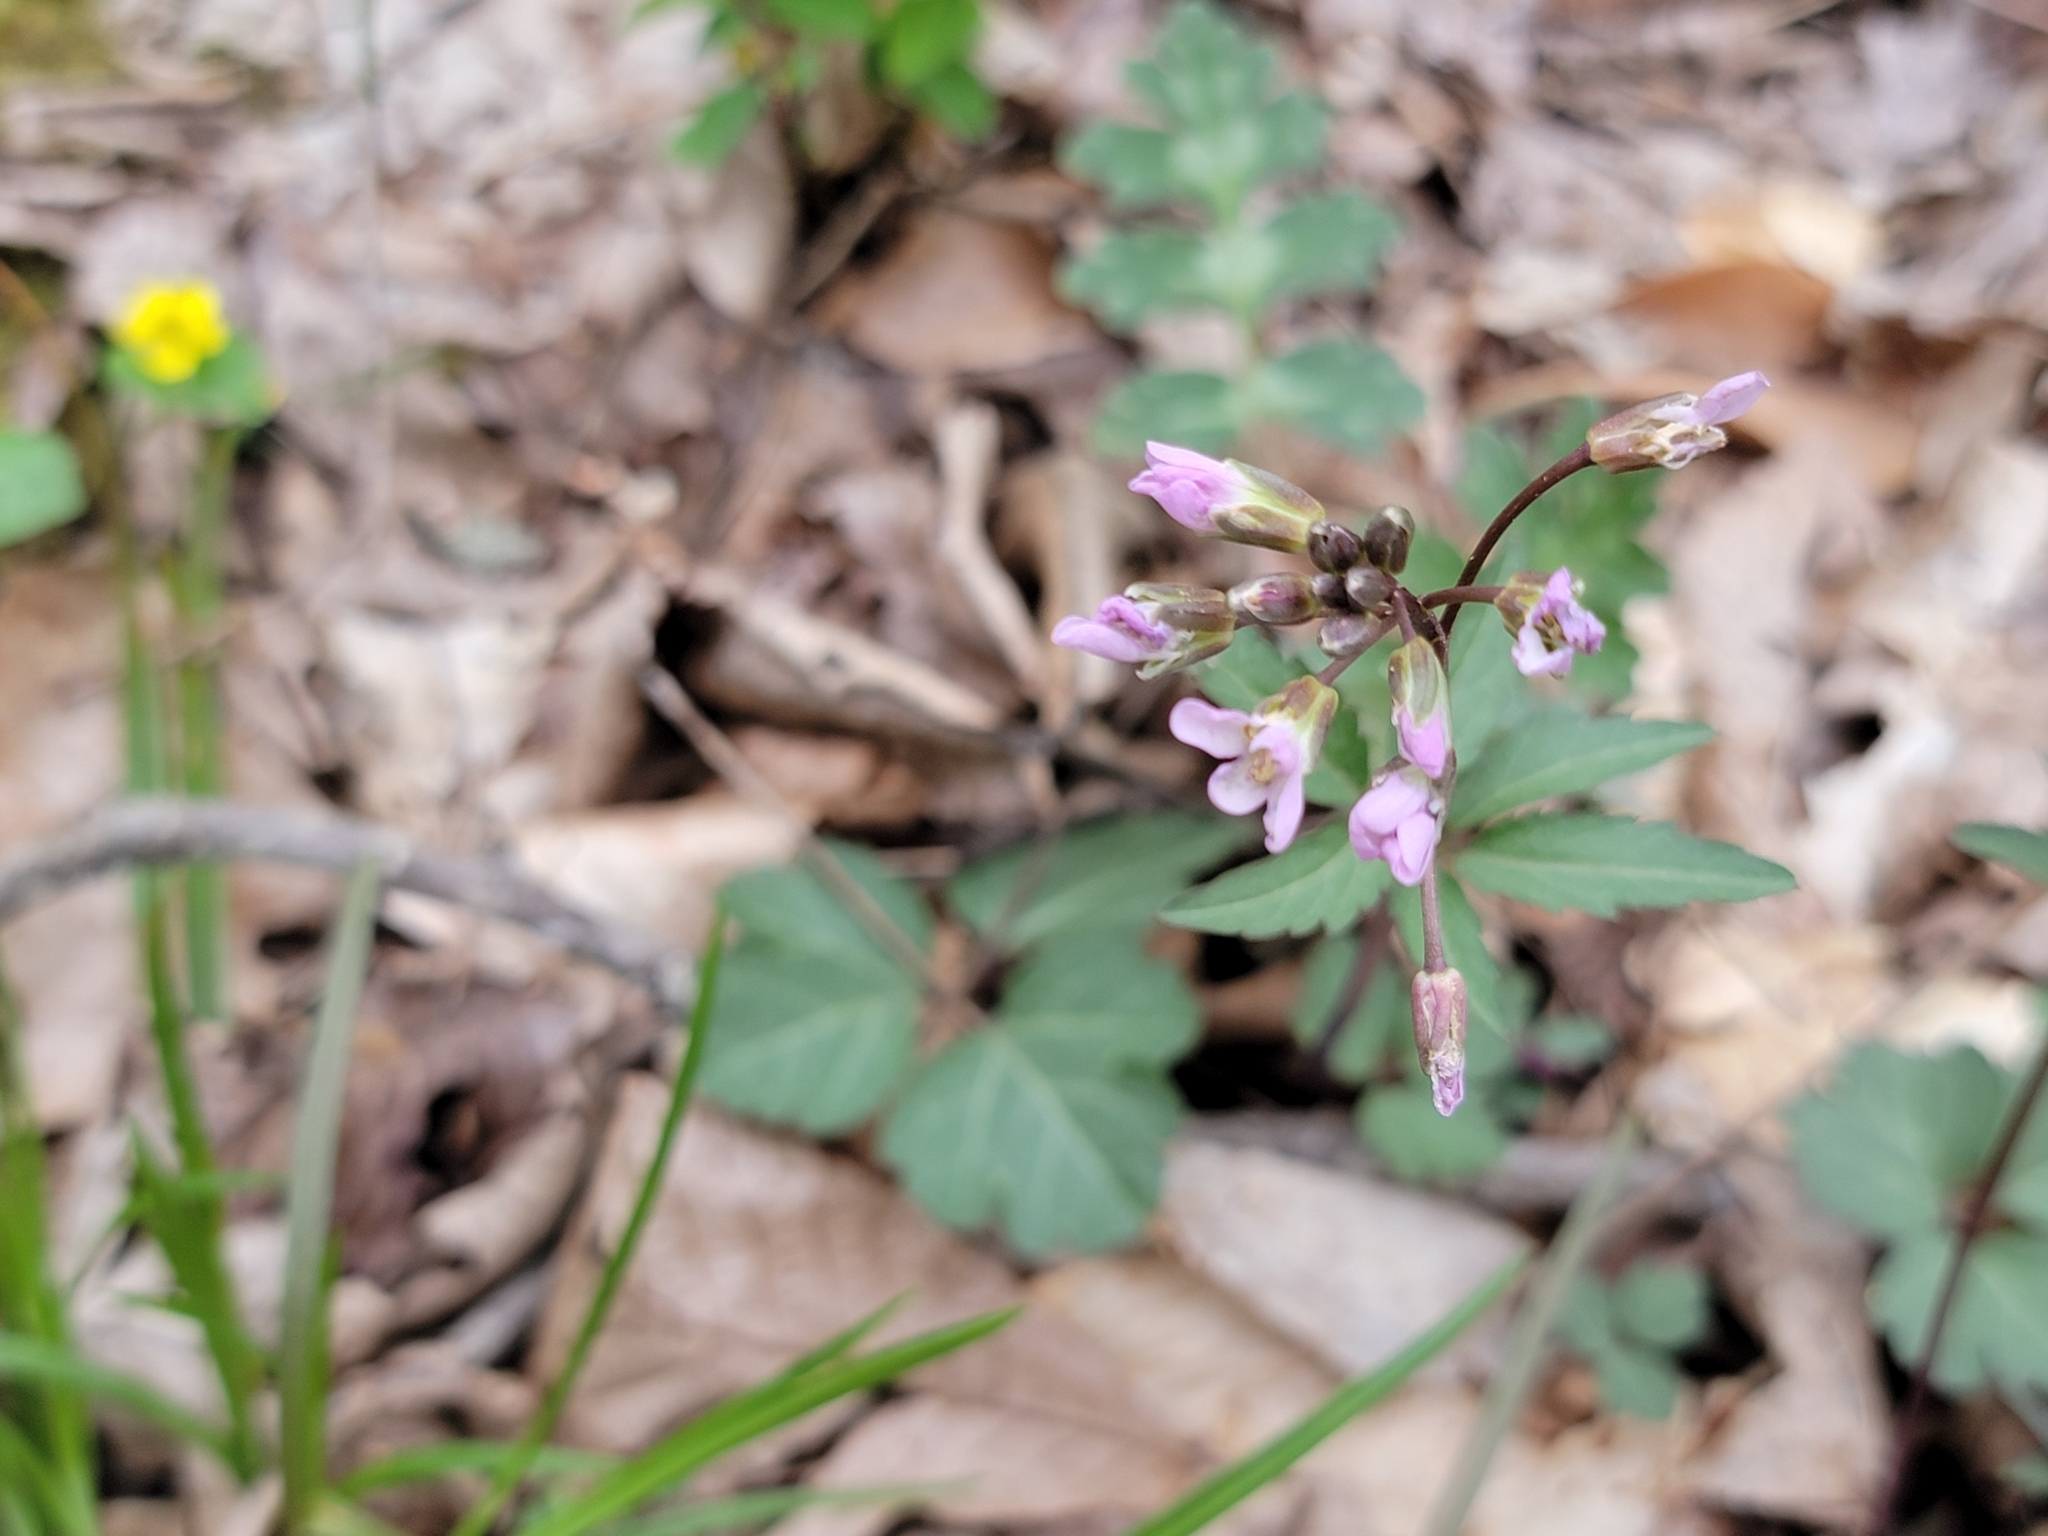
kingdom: Plantae
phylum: Tracheophyta
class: Magnoliopsida
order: Brassicales
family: Brassicaceae
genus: Cardamine
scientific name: Cardamine angustata
